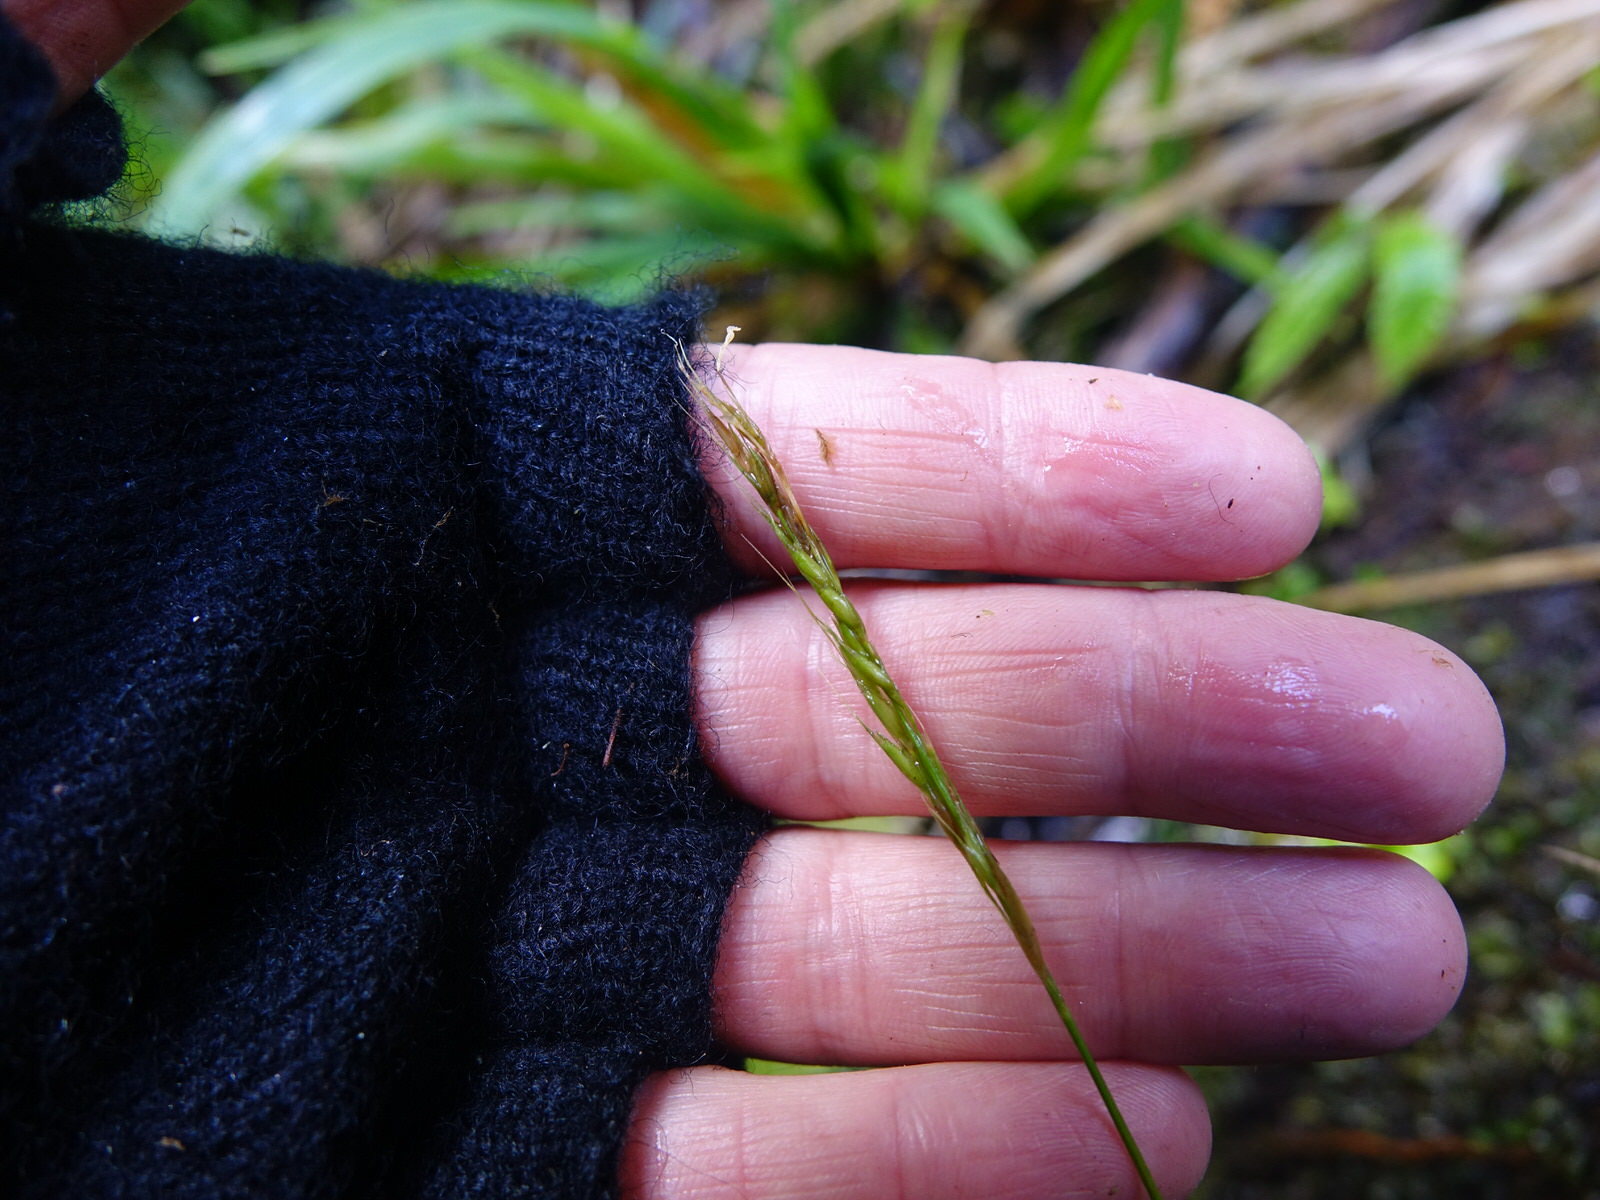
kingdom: Plantae
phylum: Tracheophyta
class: Liliopsida
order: Poales
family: Poaceae
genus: Ehrharta
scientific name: Ehrharta diplax
